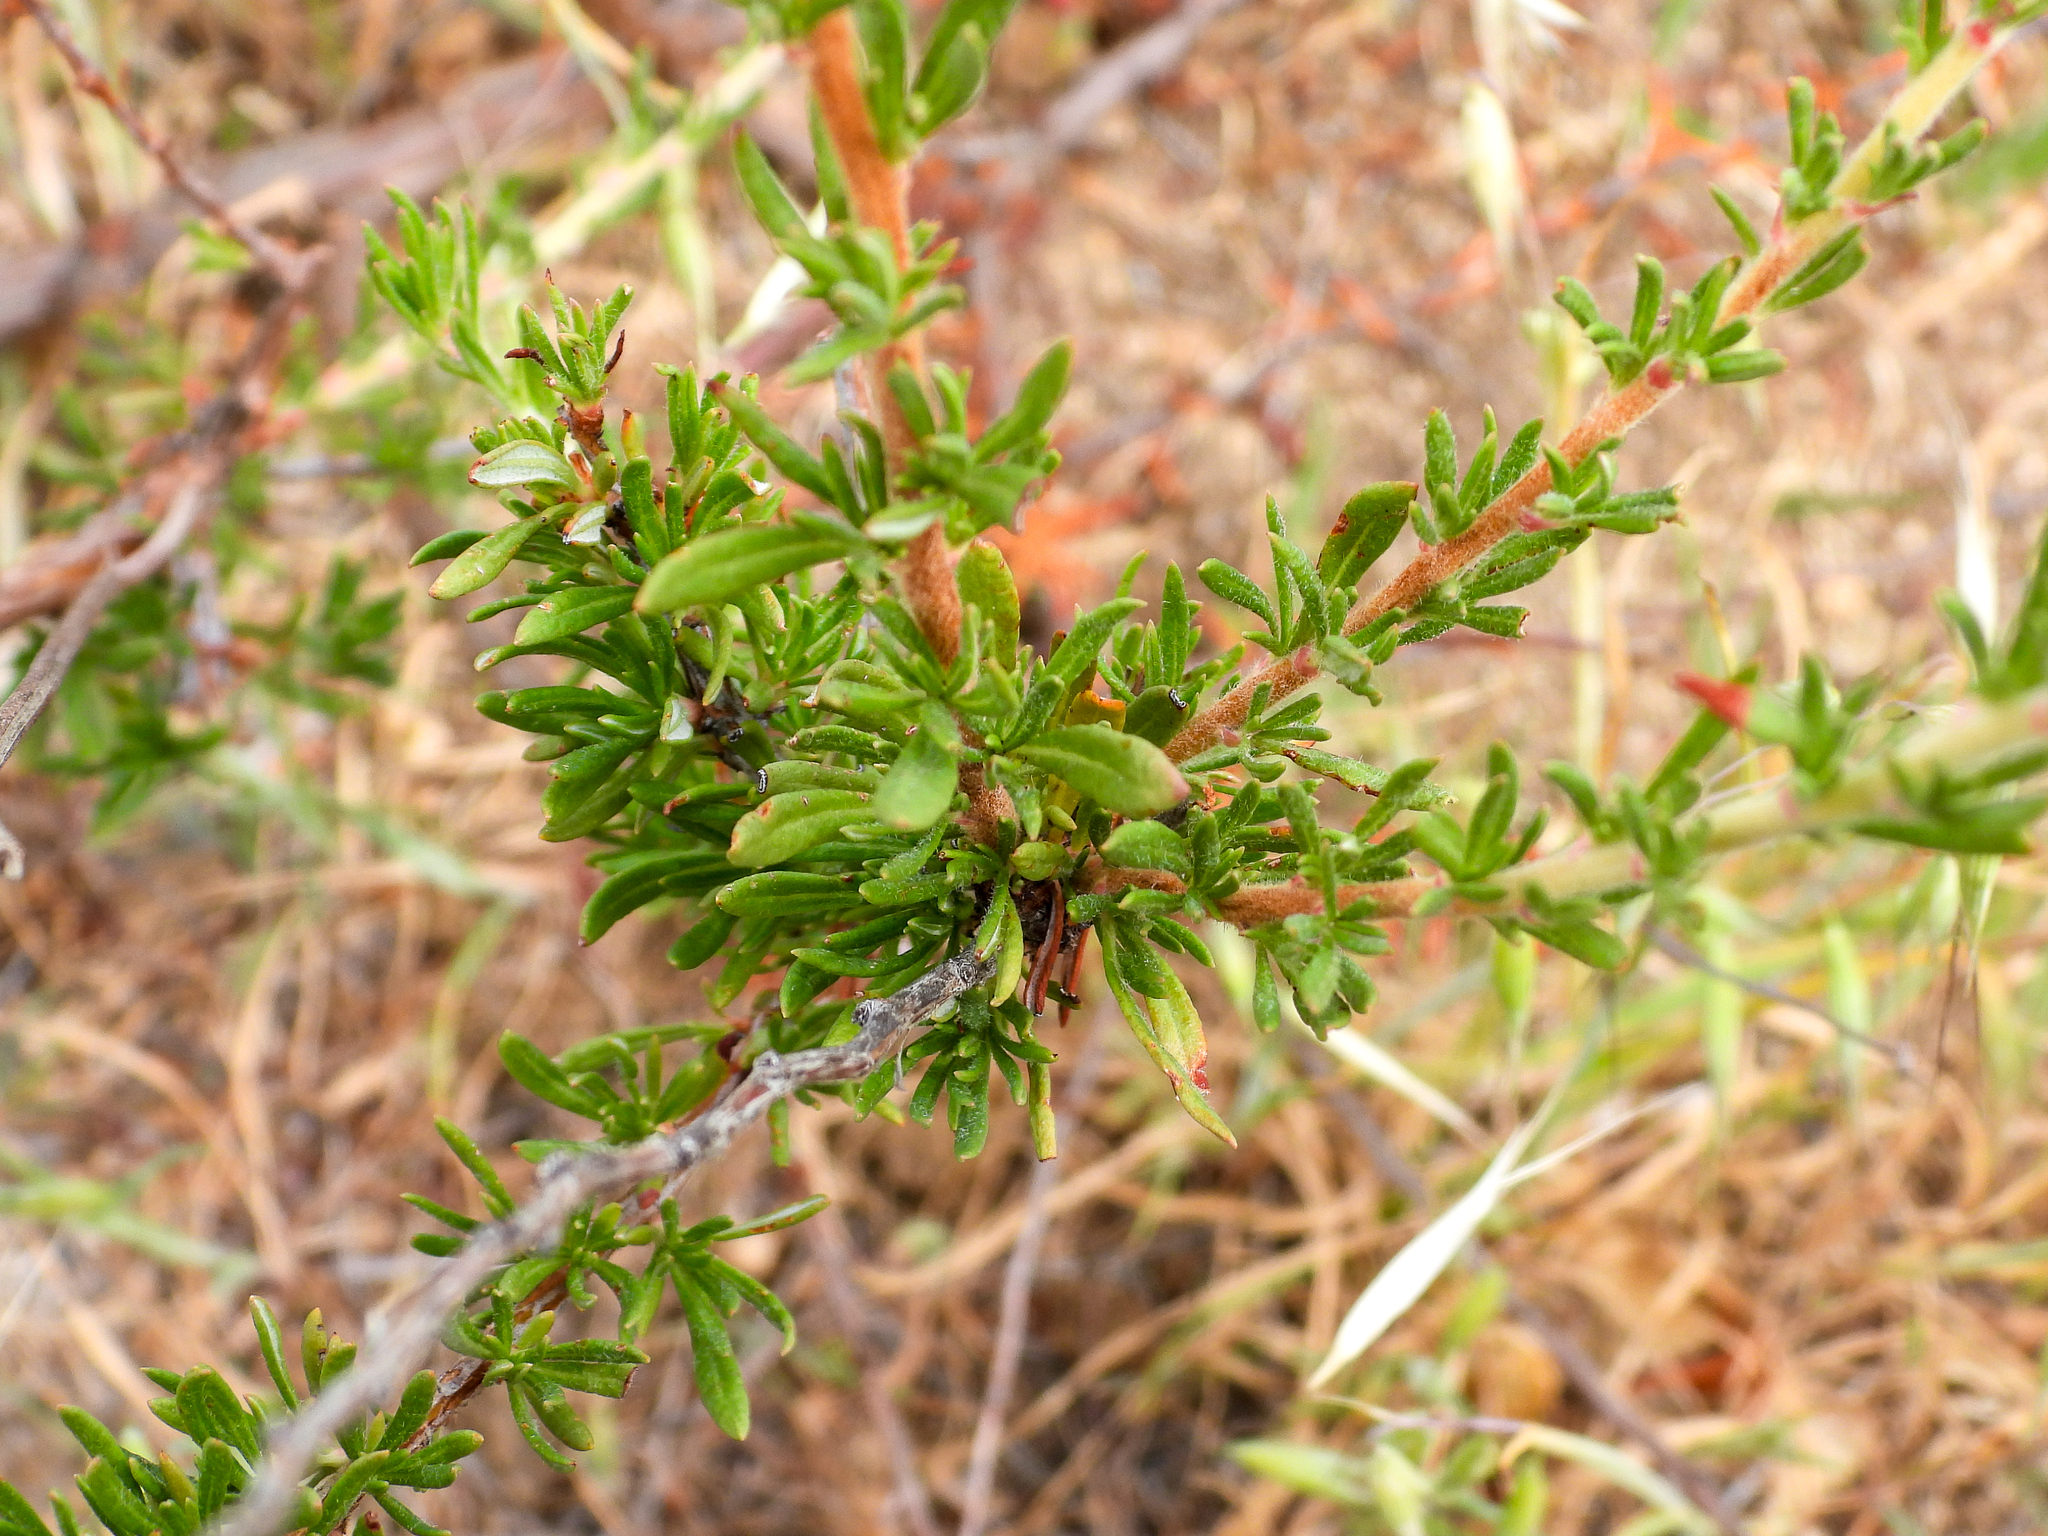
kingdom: Plantae
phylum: Tracheophyta
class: Magnoliopsida
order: Caryophyllales
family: Polygonaceae
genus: Eriogonum
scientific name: Eriogonum fasciculatum
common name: California wild buckwheat
